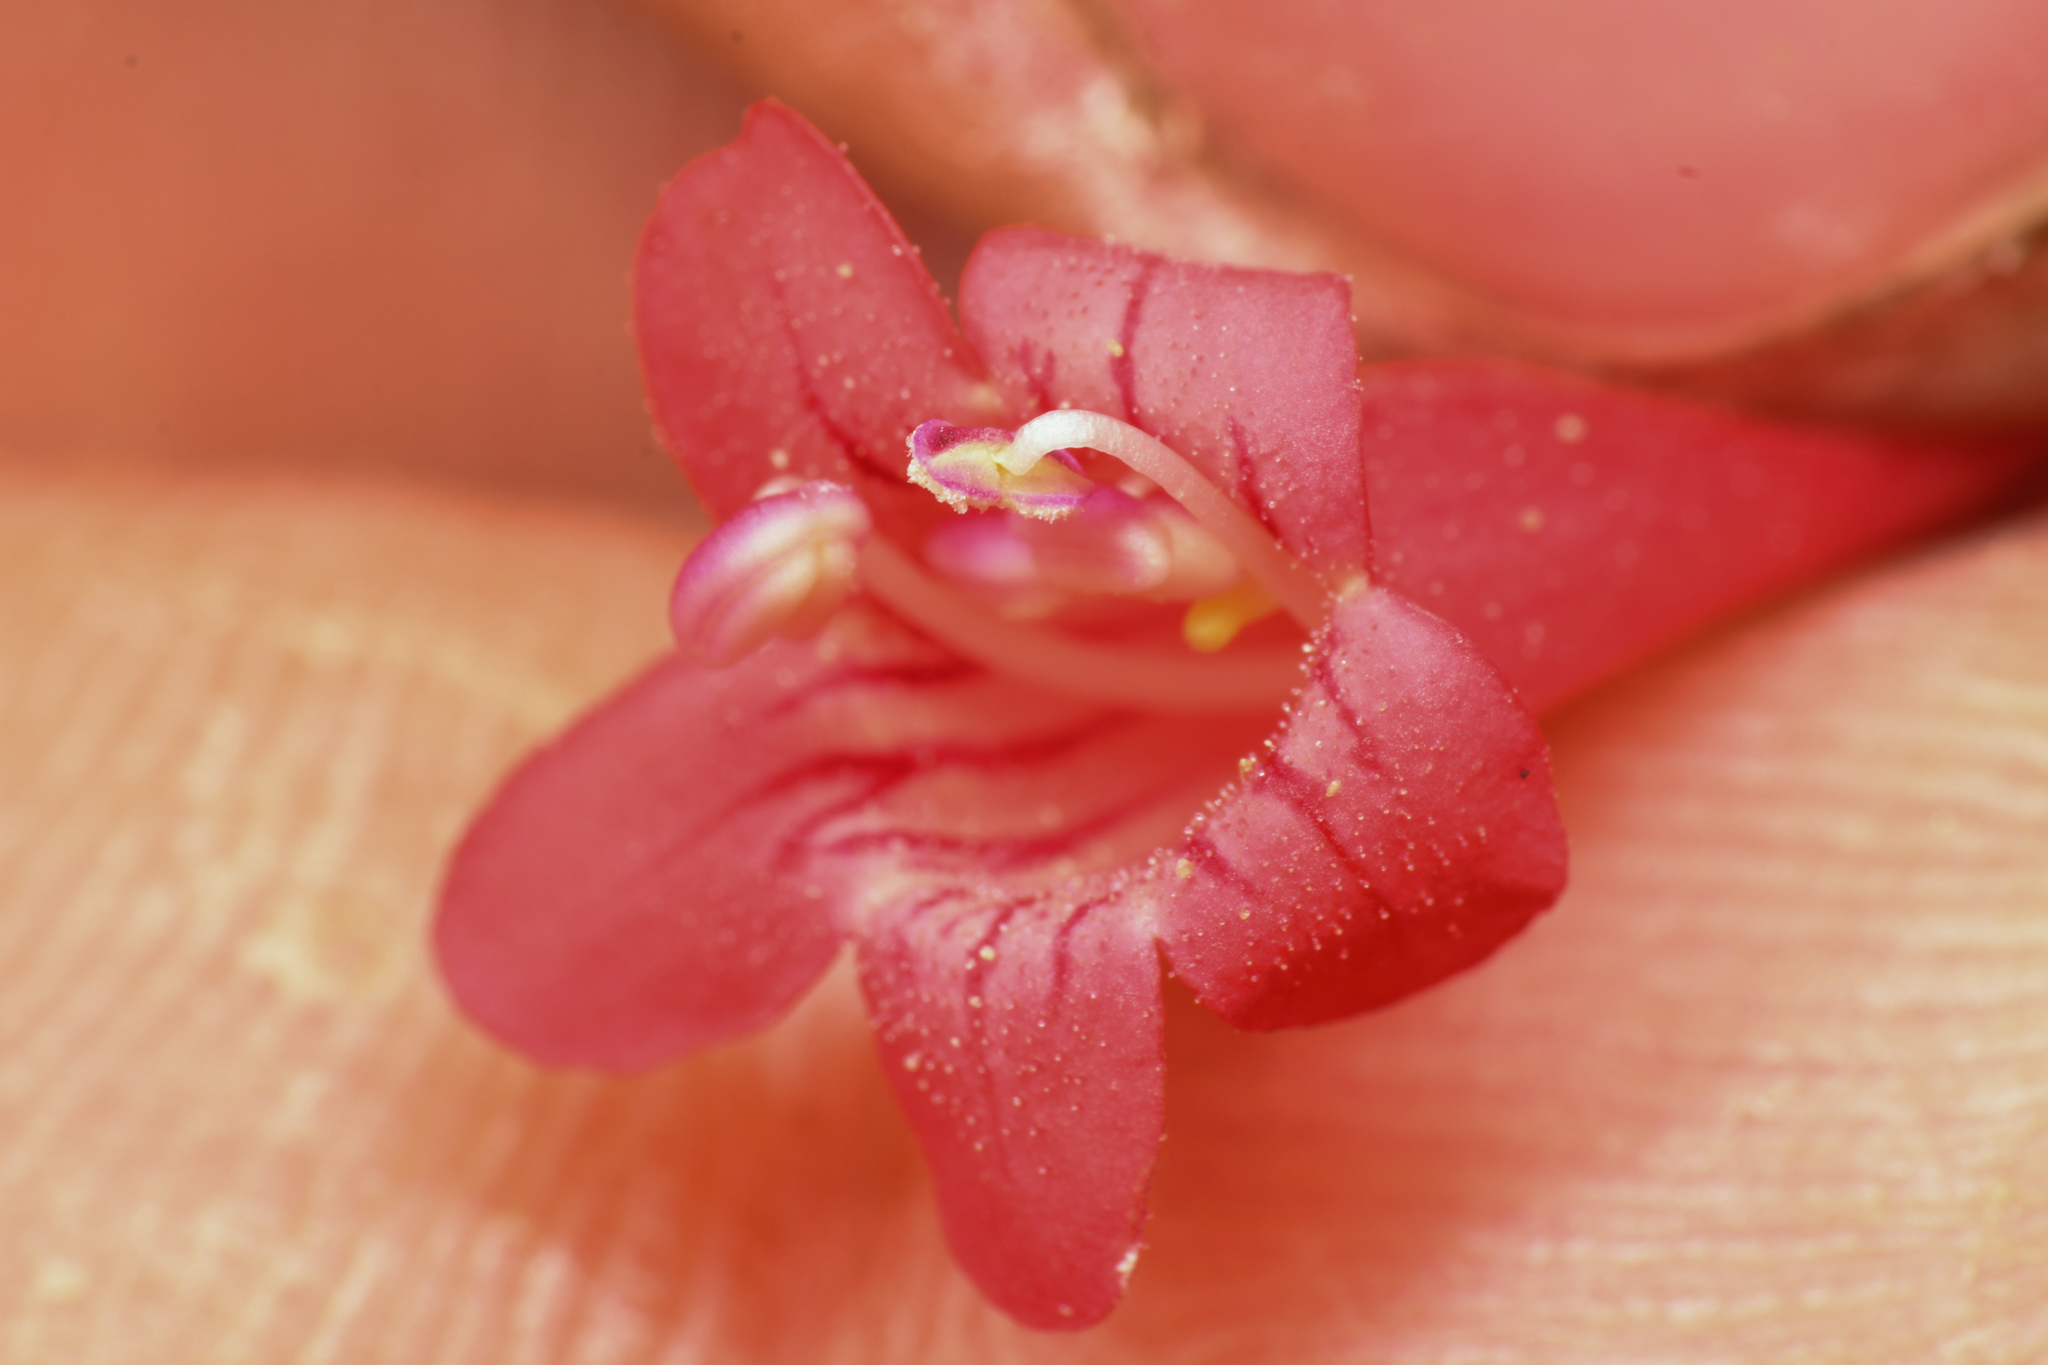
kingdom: Plantae
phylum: Tracheophyta
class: Magnoliopsida
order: Lamiales
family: Plantaginaceae
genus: Penstemon
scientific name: Penstemon utahensis
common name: Utah penstemon
